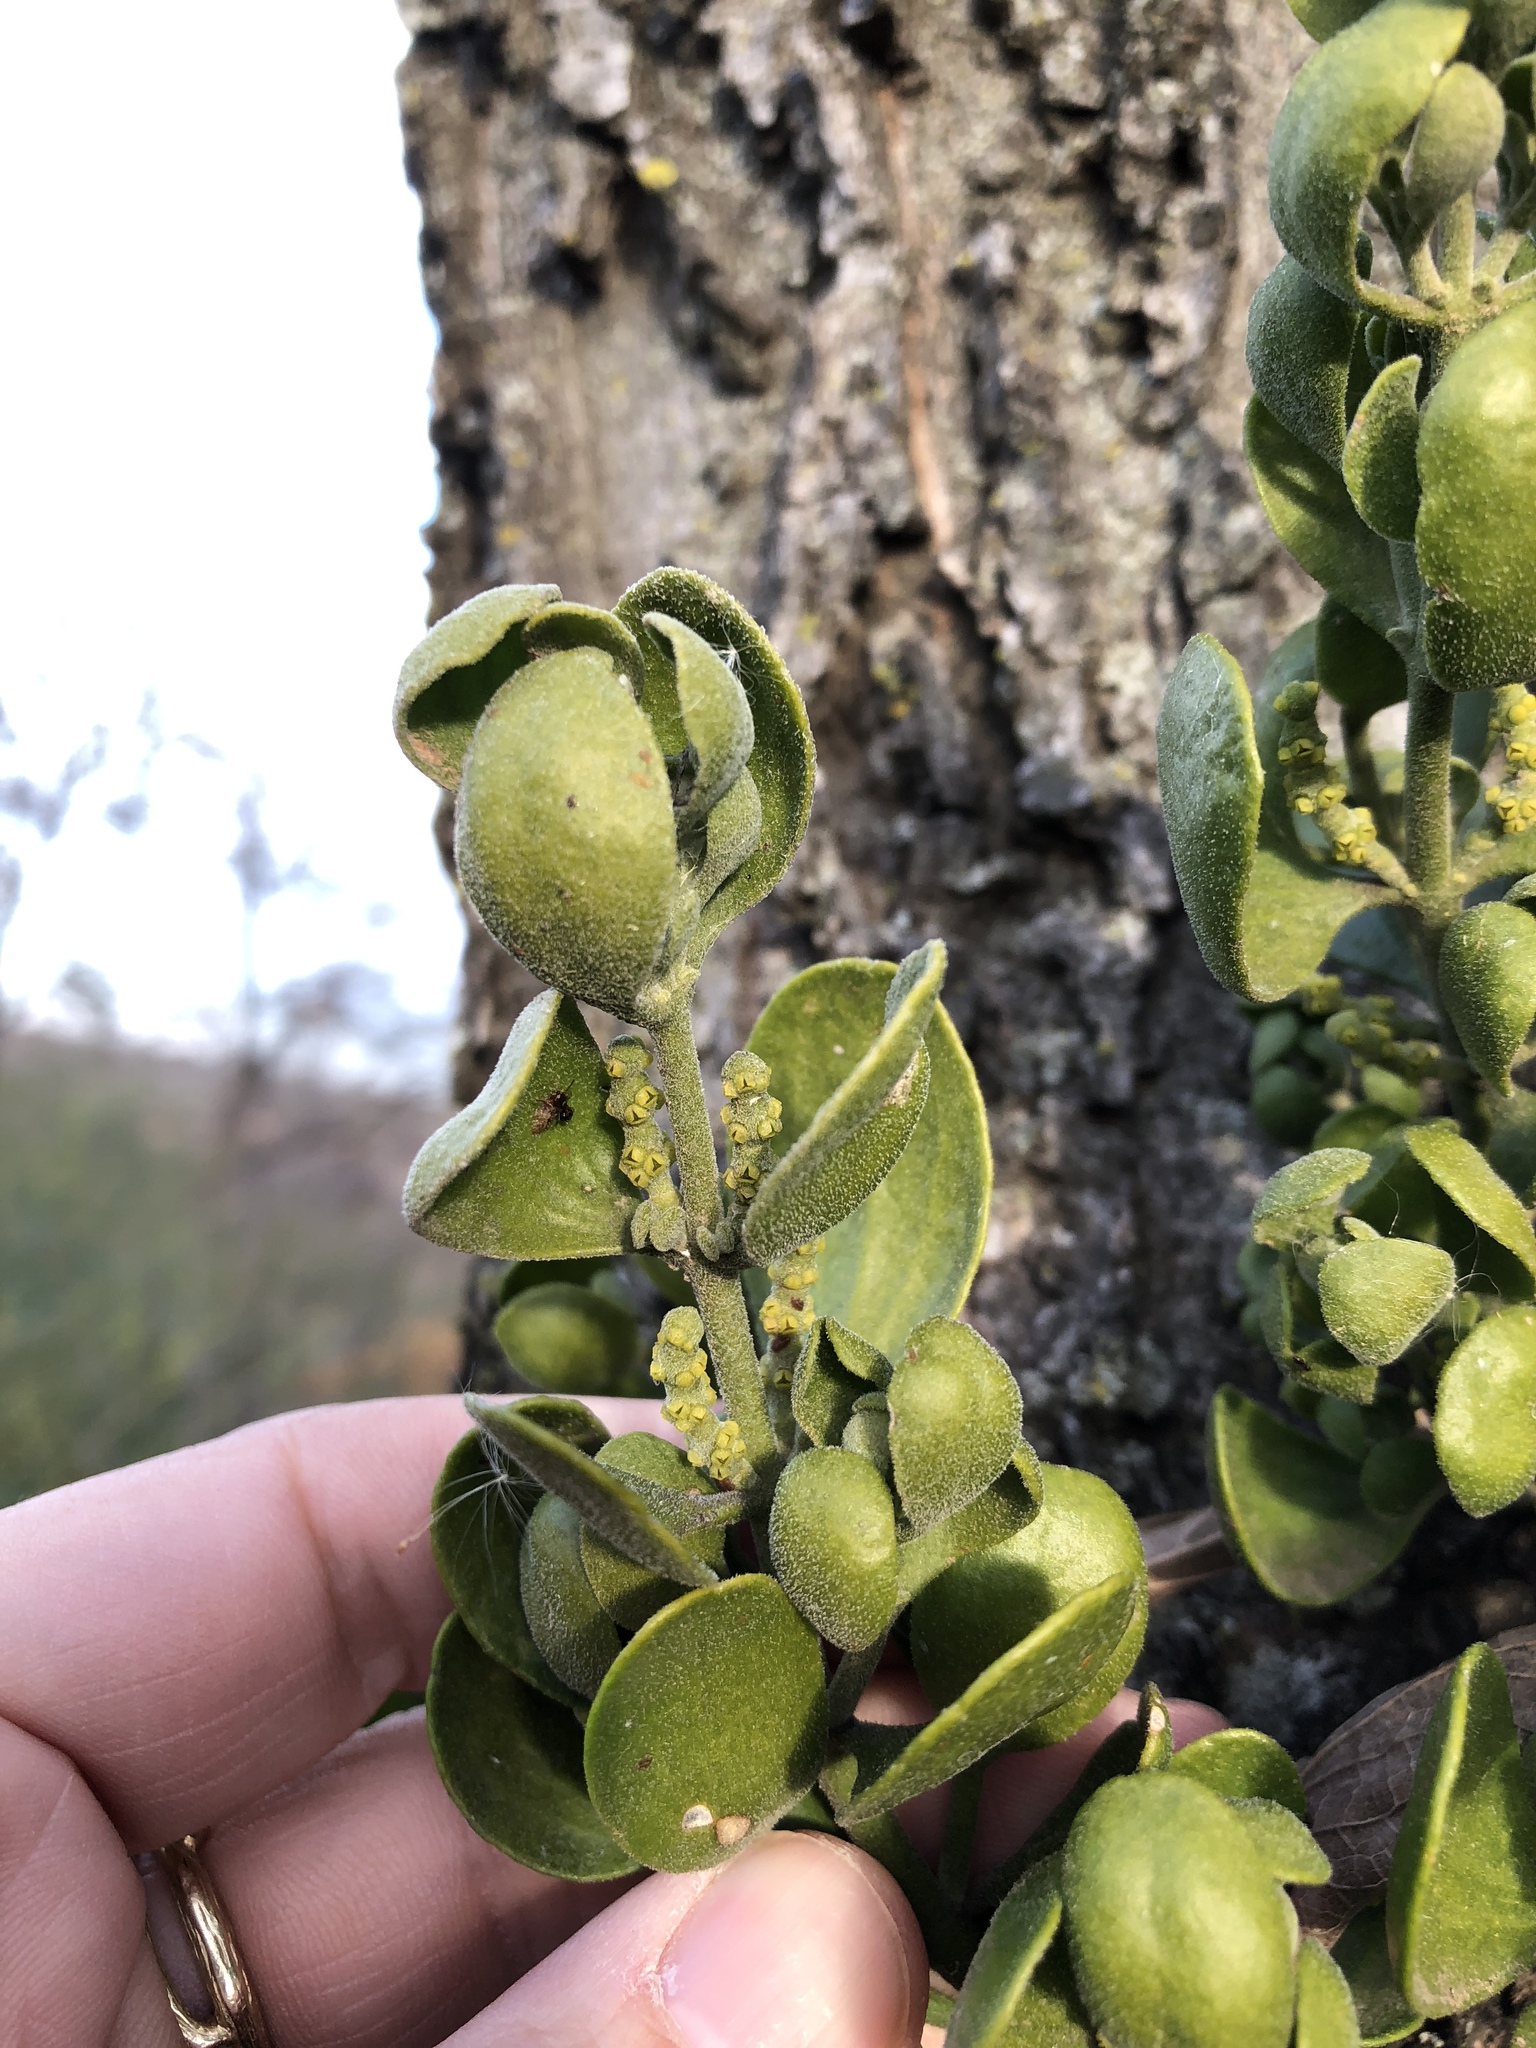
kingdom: Plantae
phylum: Tracheophyta
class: Magnoliopsida
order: Santalales
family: Viscaceae
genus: Phoradendron
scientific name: Phoradendron leucarpum
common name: Pacific mistletoe
